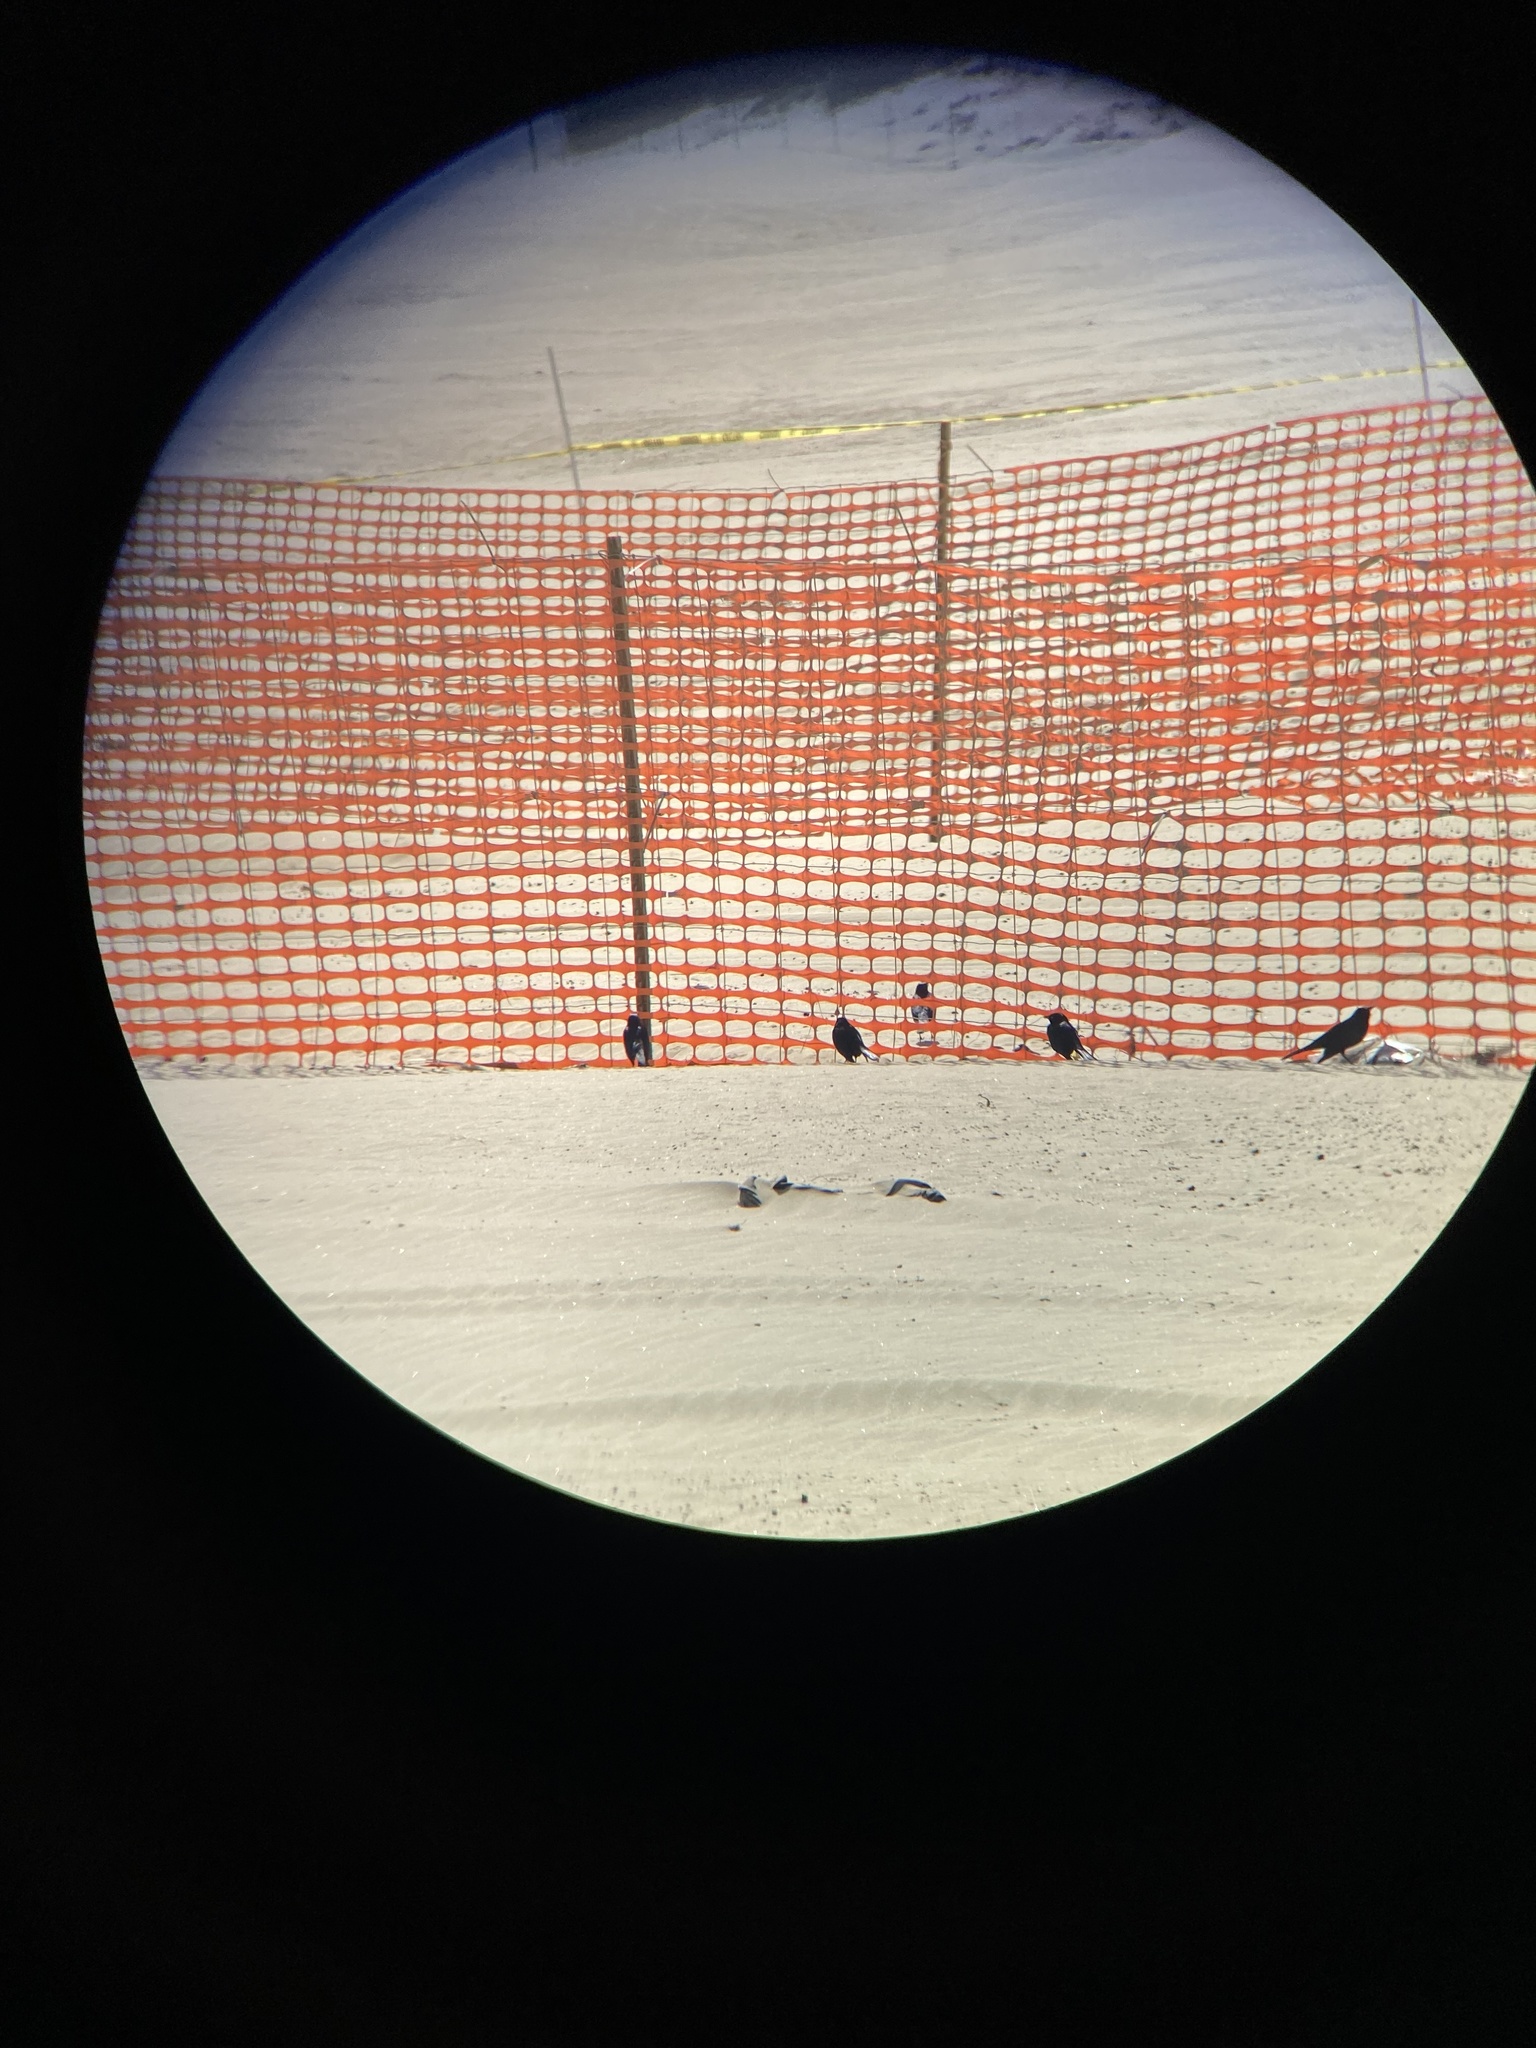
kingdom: Animalia
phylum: Chordata
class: Aves
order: Passeriformes
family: Icteridae
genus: Euphagus
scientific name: Euphagus cyanocephalus
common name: Brewer's blackbird
